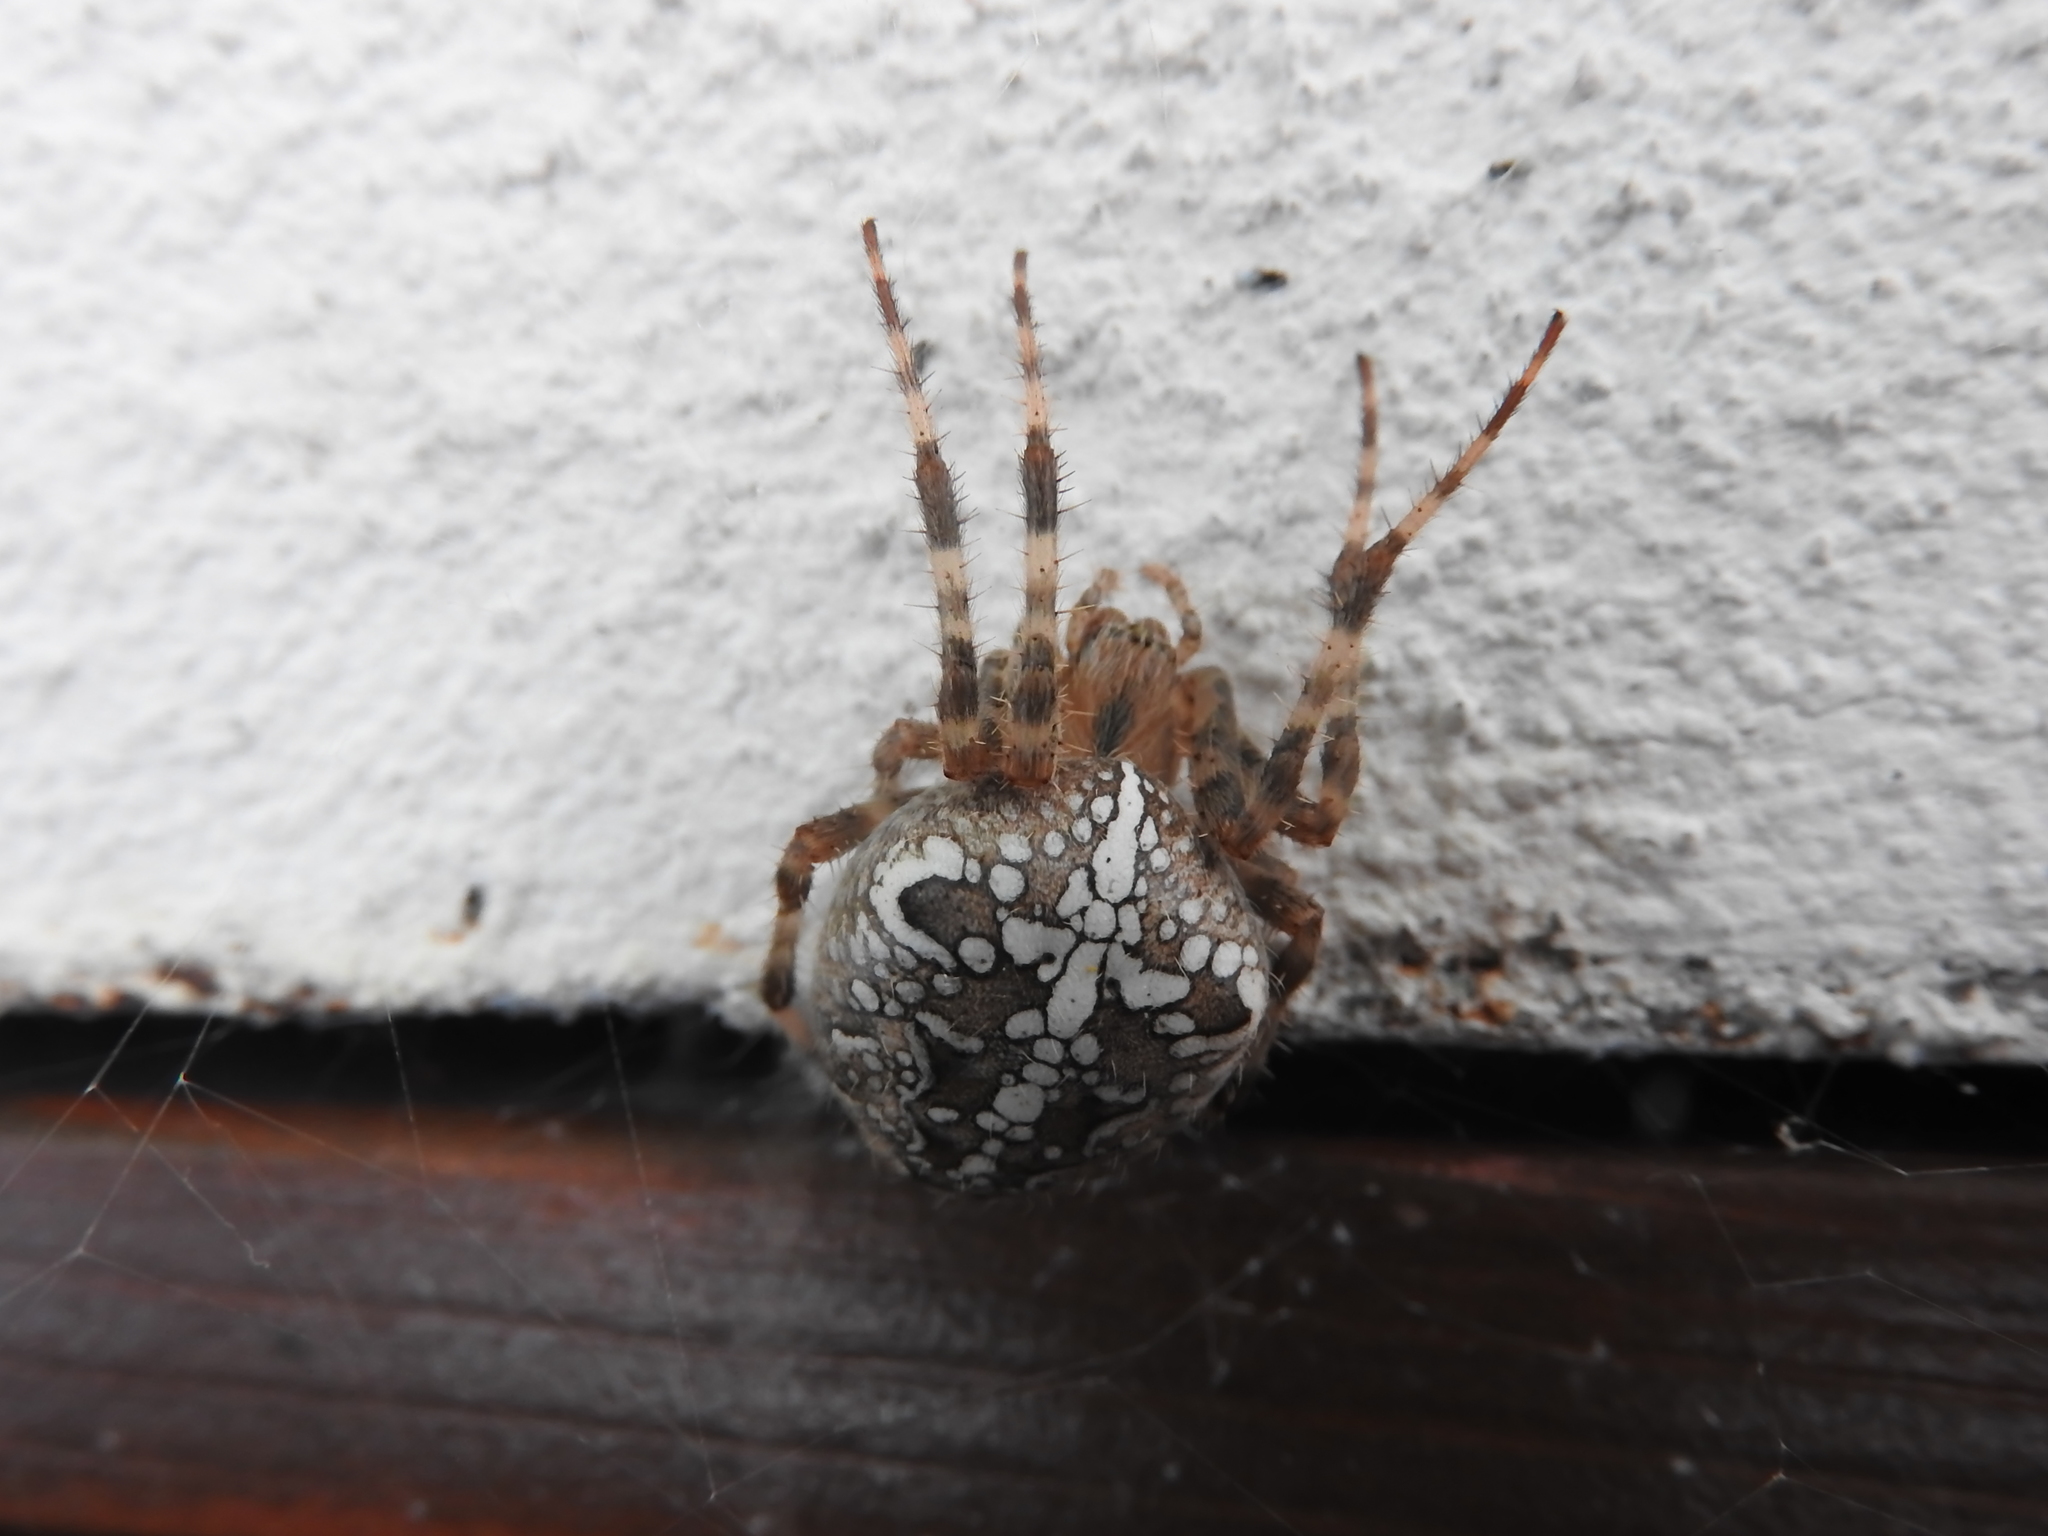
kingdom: Animalia
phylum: Arthropoda
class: Arachnida
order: Araneae
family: Araneidae
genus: Araneus
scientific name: Araneus diadematus
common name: Cross orbweaver
